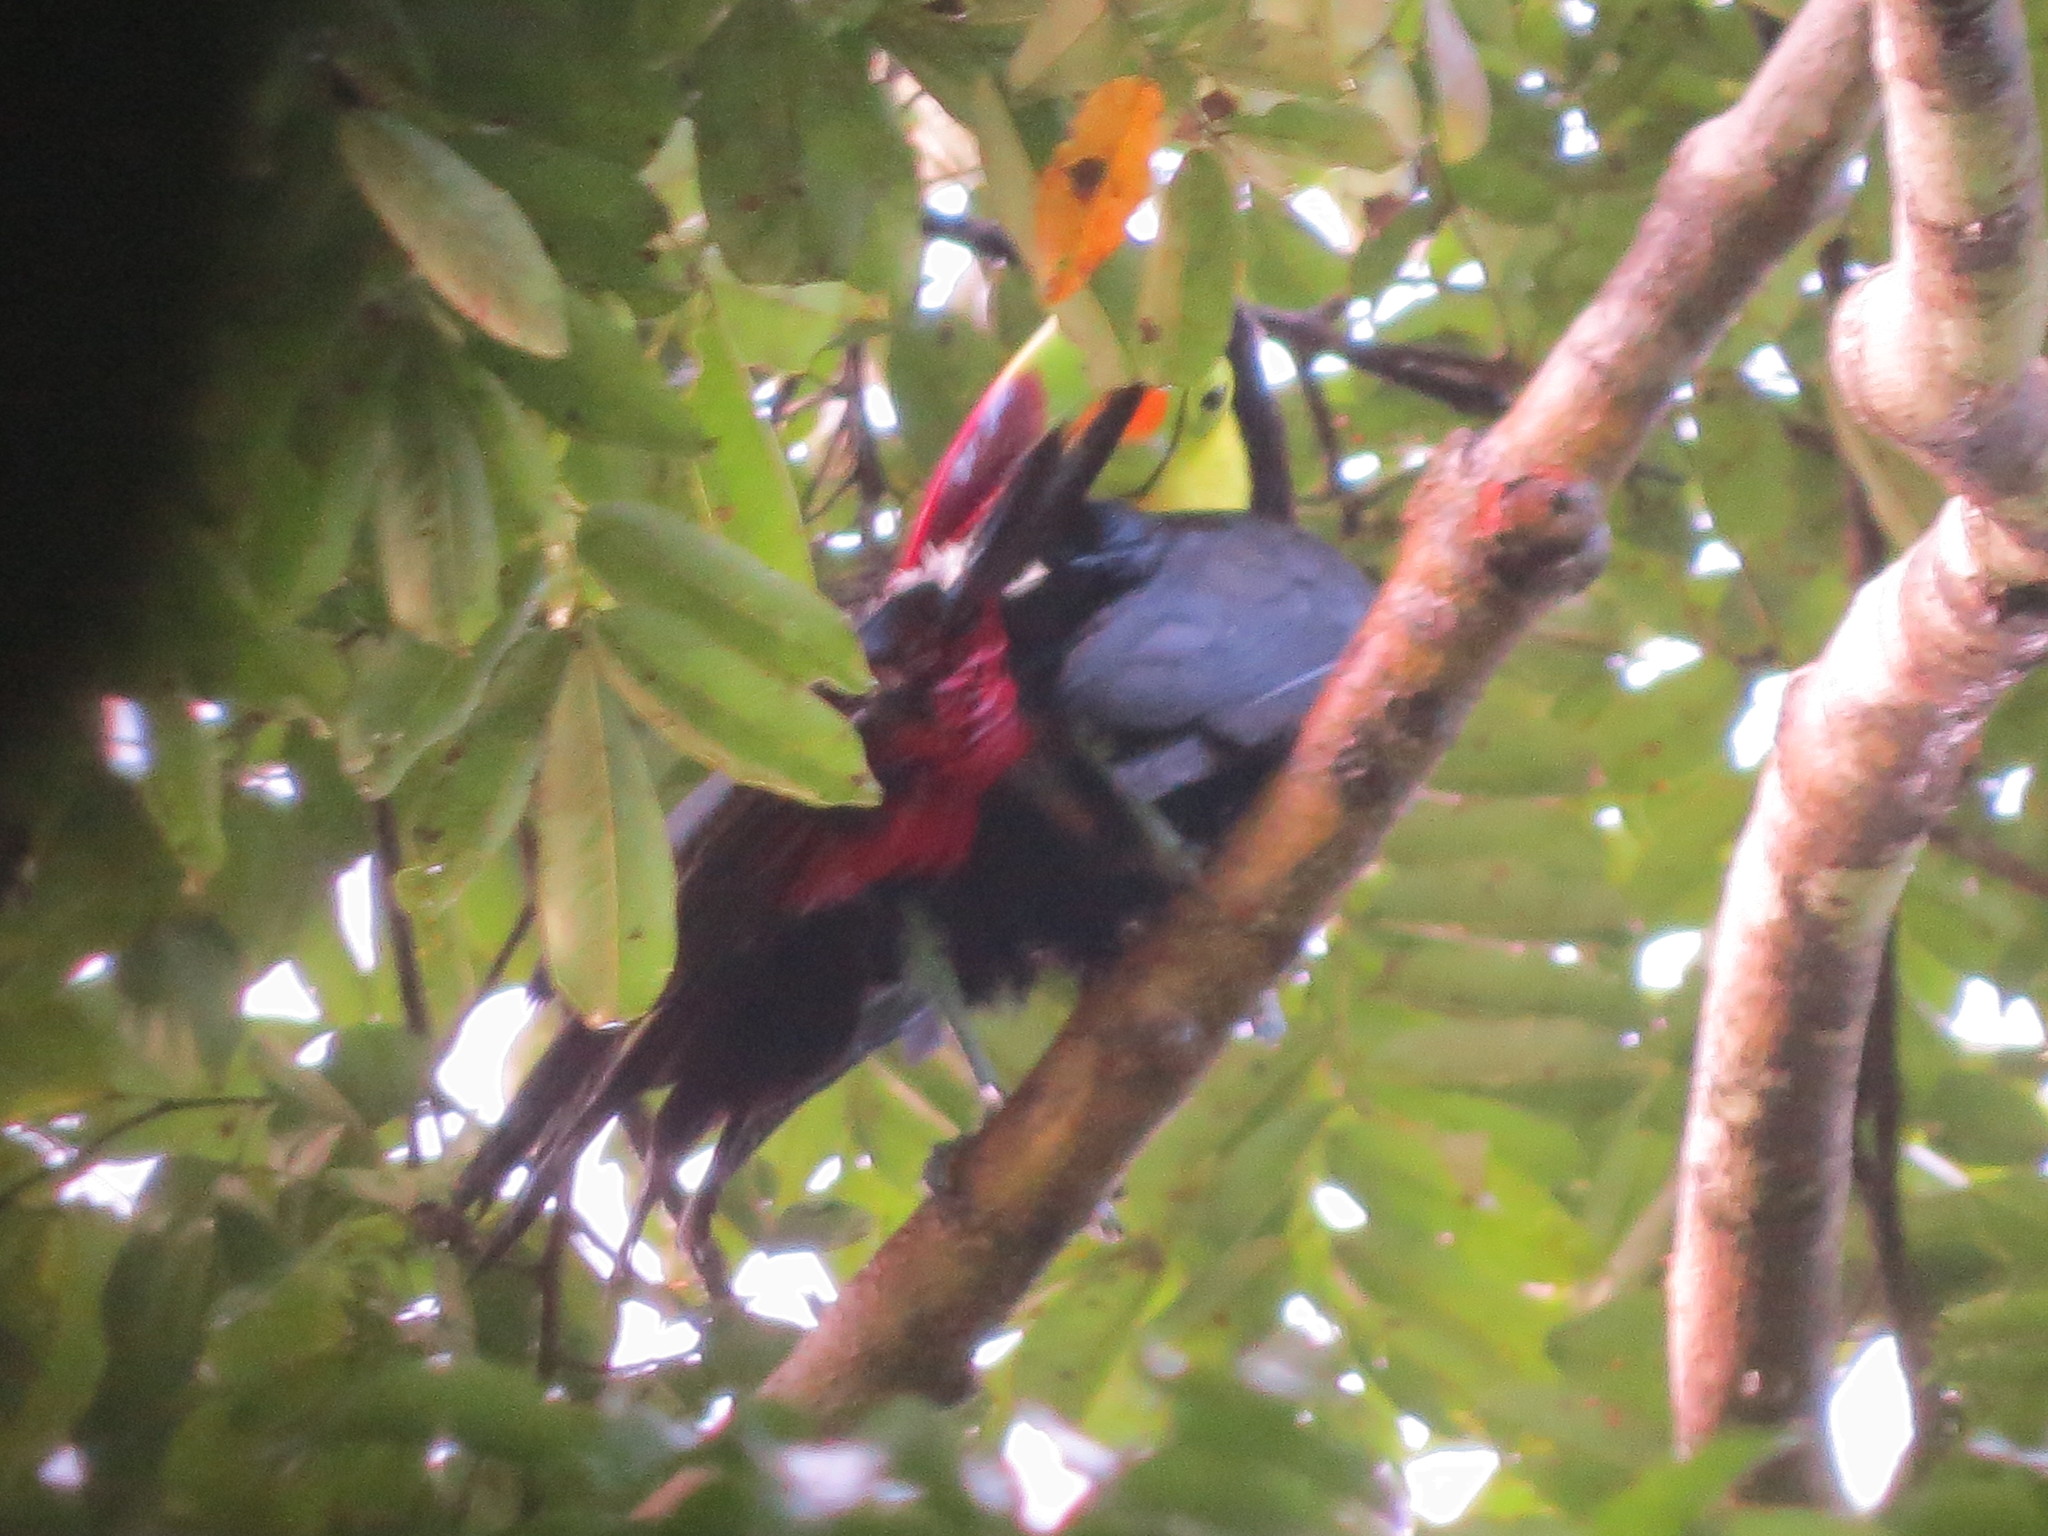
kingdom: Animalia
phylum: Chordata
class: Aves
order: Piciformes
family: Ramphastidae
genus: Ramphastos
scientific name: Ramphastos sulfuratus
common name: Keel-billed toucan
